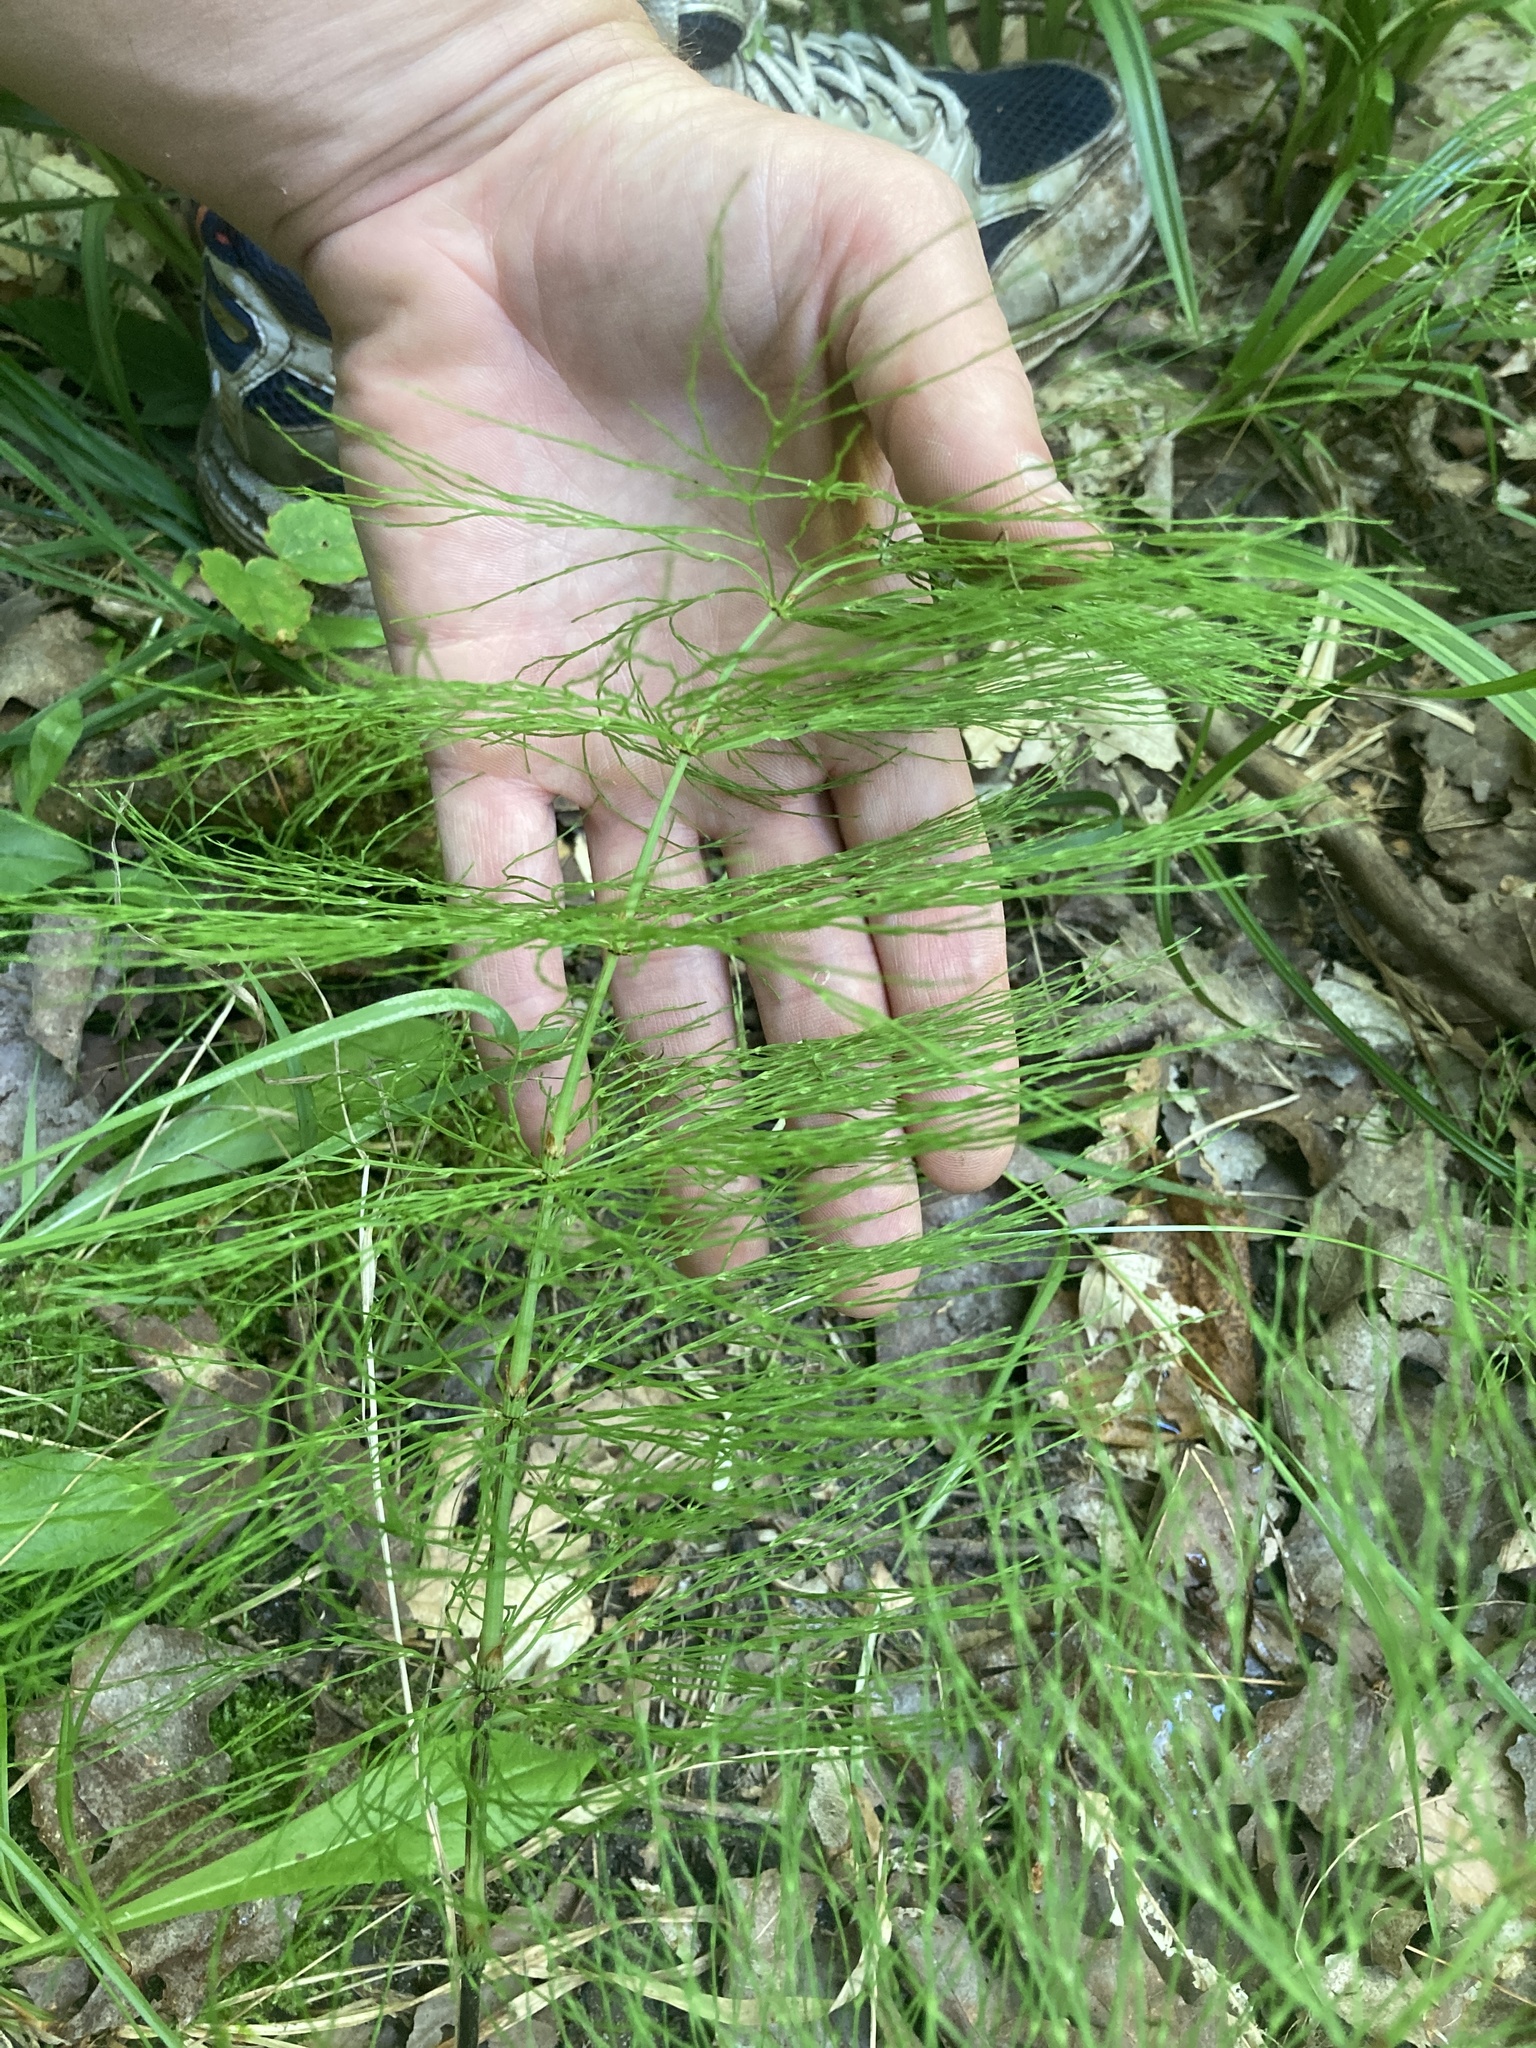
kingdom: Plantae
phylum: Tracheophyta
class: Polypodiopsida
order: Equisetales
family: Equisetaceae
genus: Equisetum
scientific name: Equisetum sylvaticum
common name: Wood horsetail
